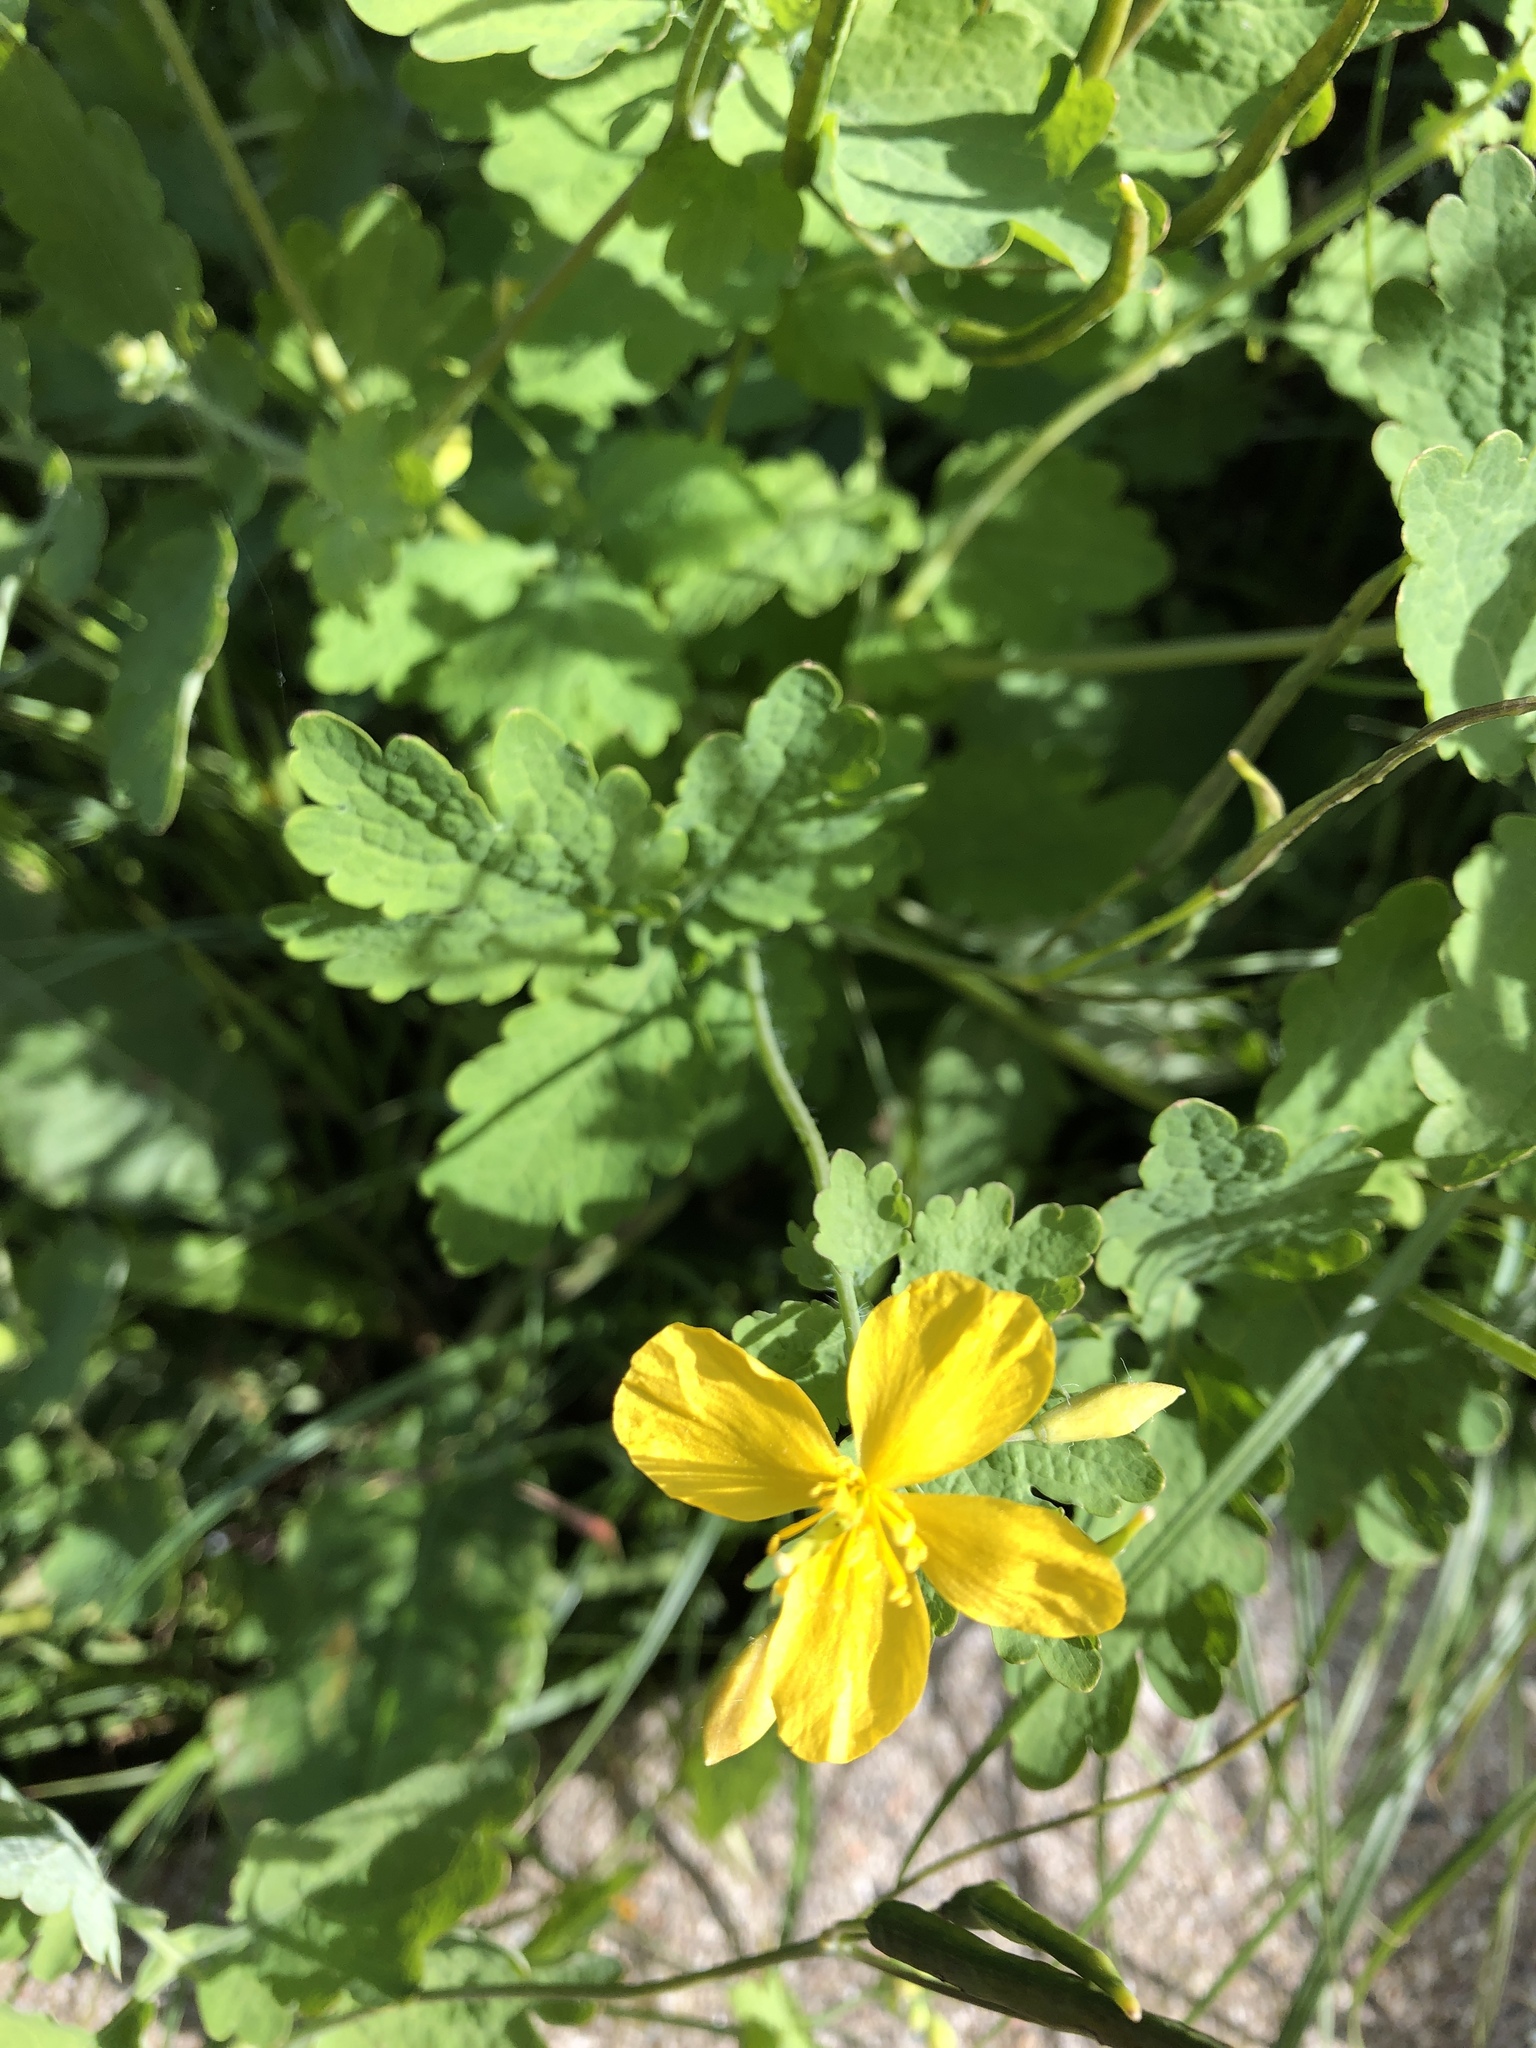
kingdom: Plantae
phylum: Tracheophyta
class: Magnoliopsida
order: Ranunculales
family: Papaveraceae
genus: Chelidonium
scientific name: Chelidonium majus
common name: Greater celandine
